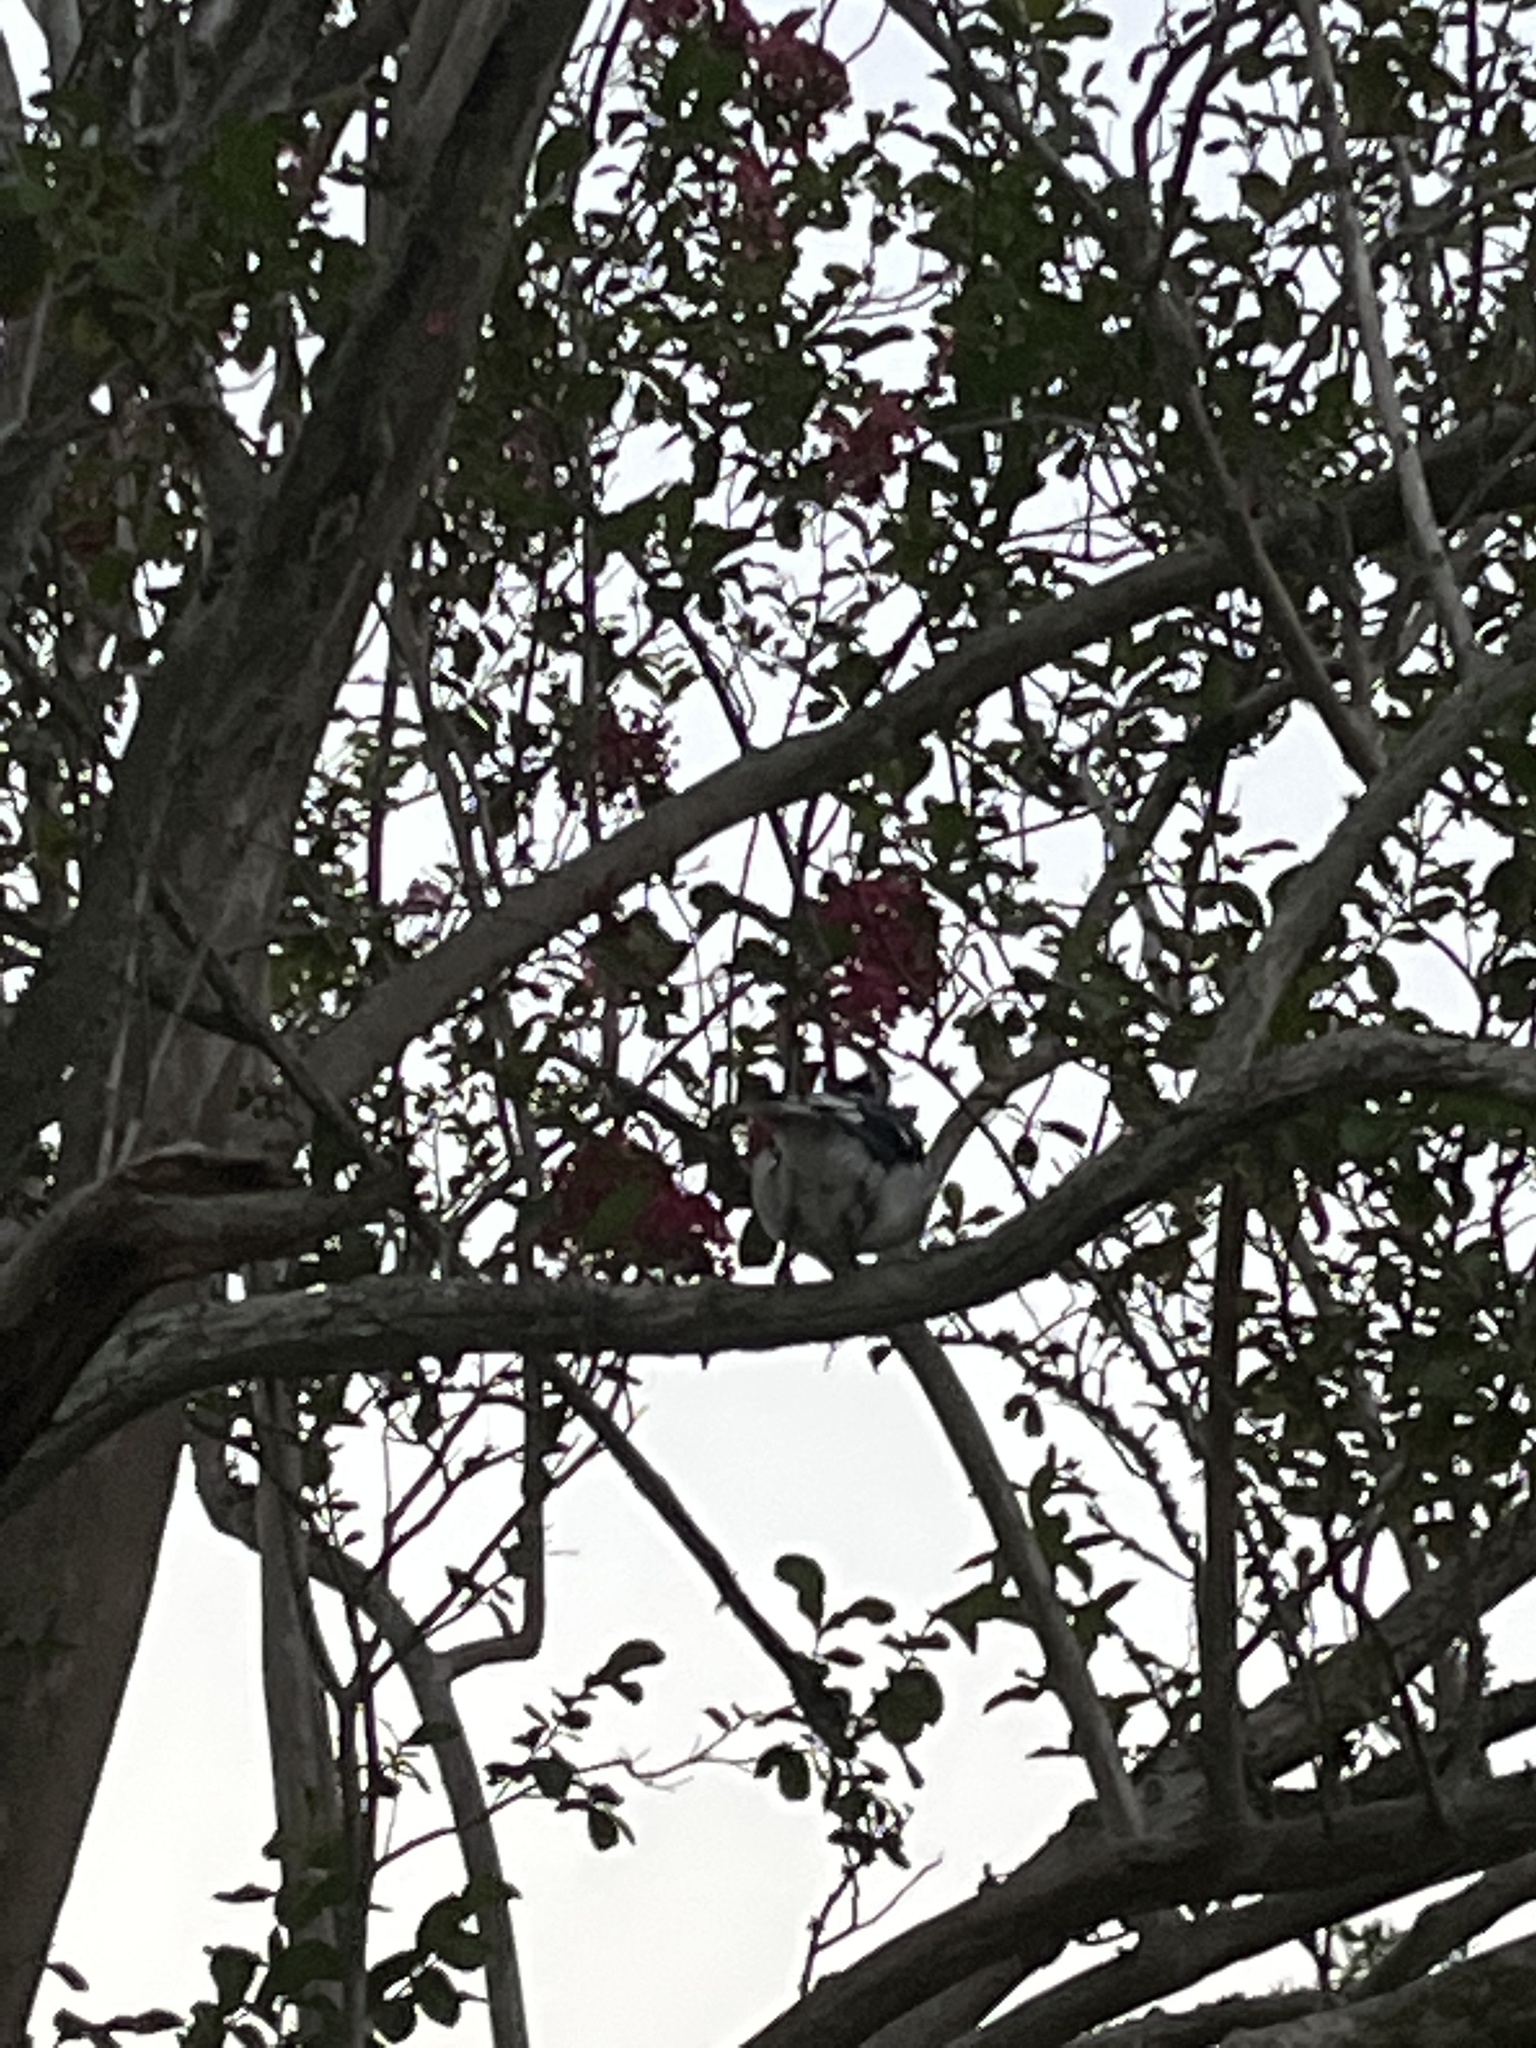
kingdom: Animalia
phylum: Chordata
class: Aves
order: Passeriformes
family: Corvidae
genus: Cyanocitta
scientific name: Cyanocitta cristata
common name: Blue jay
